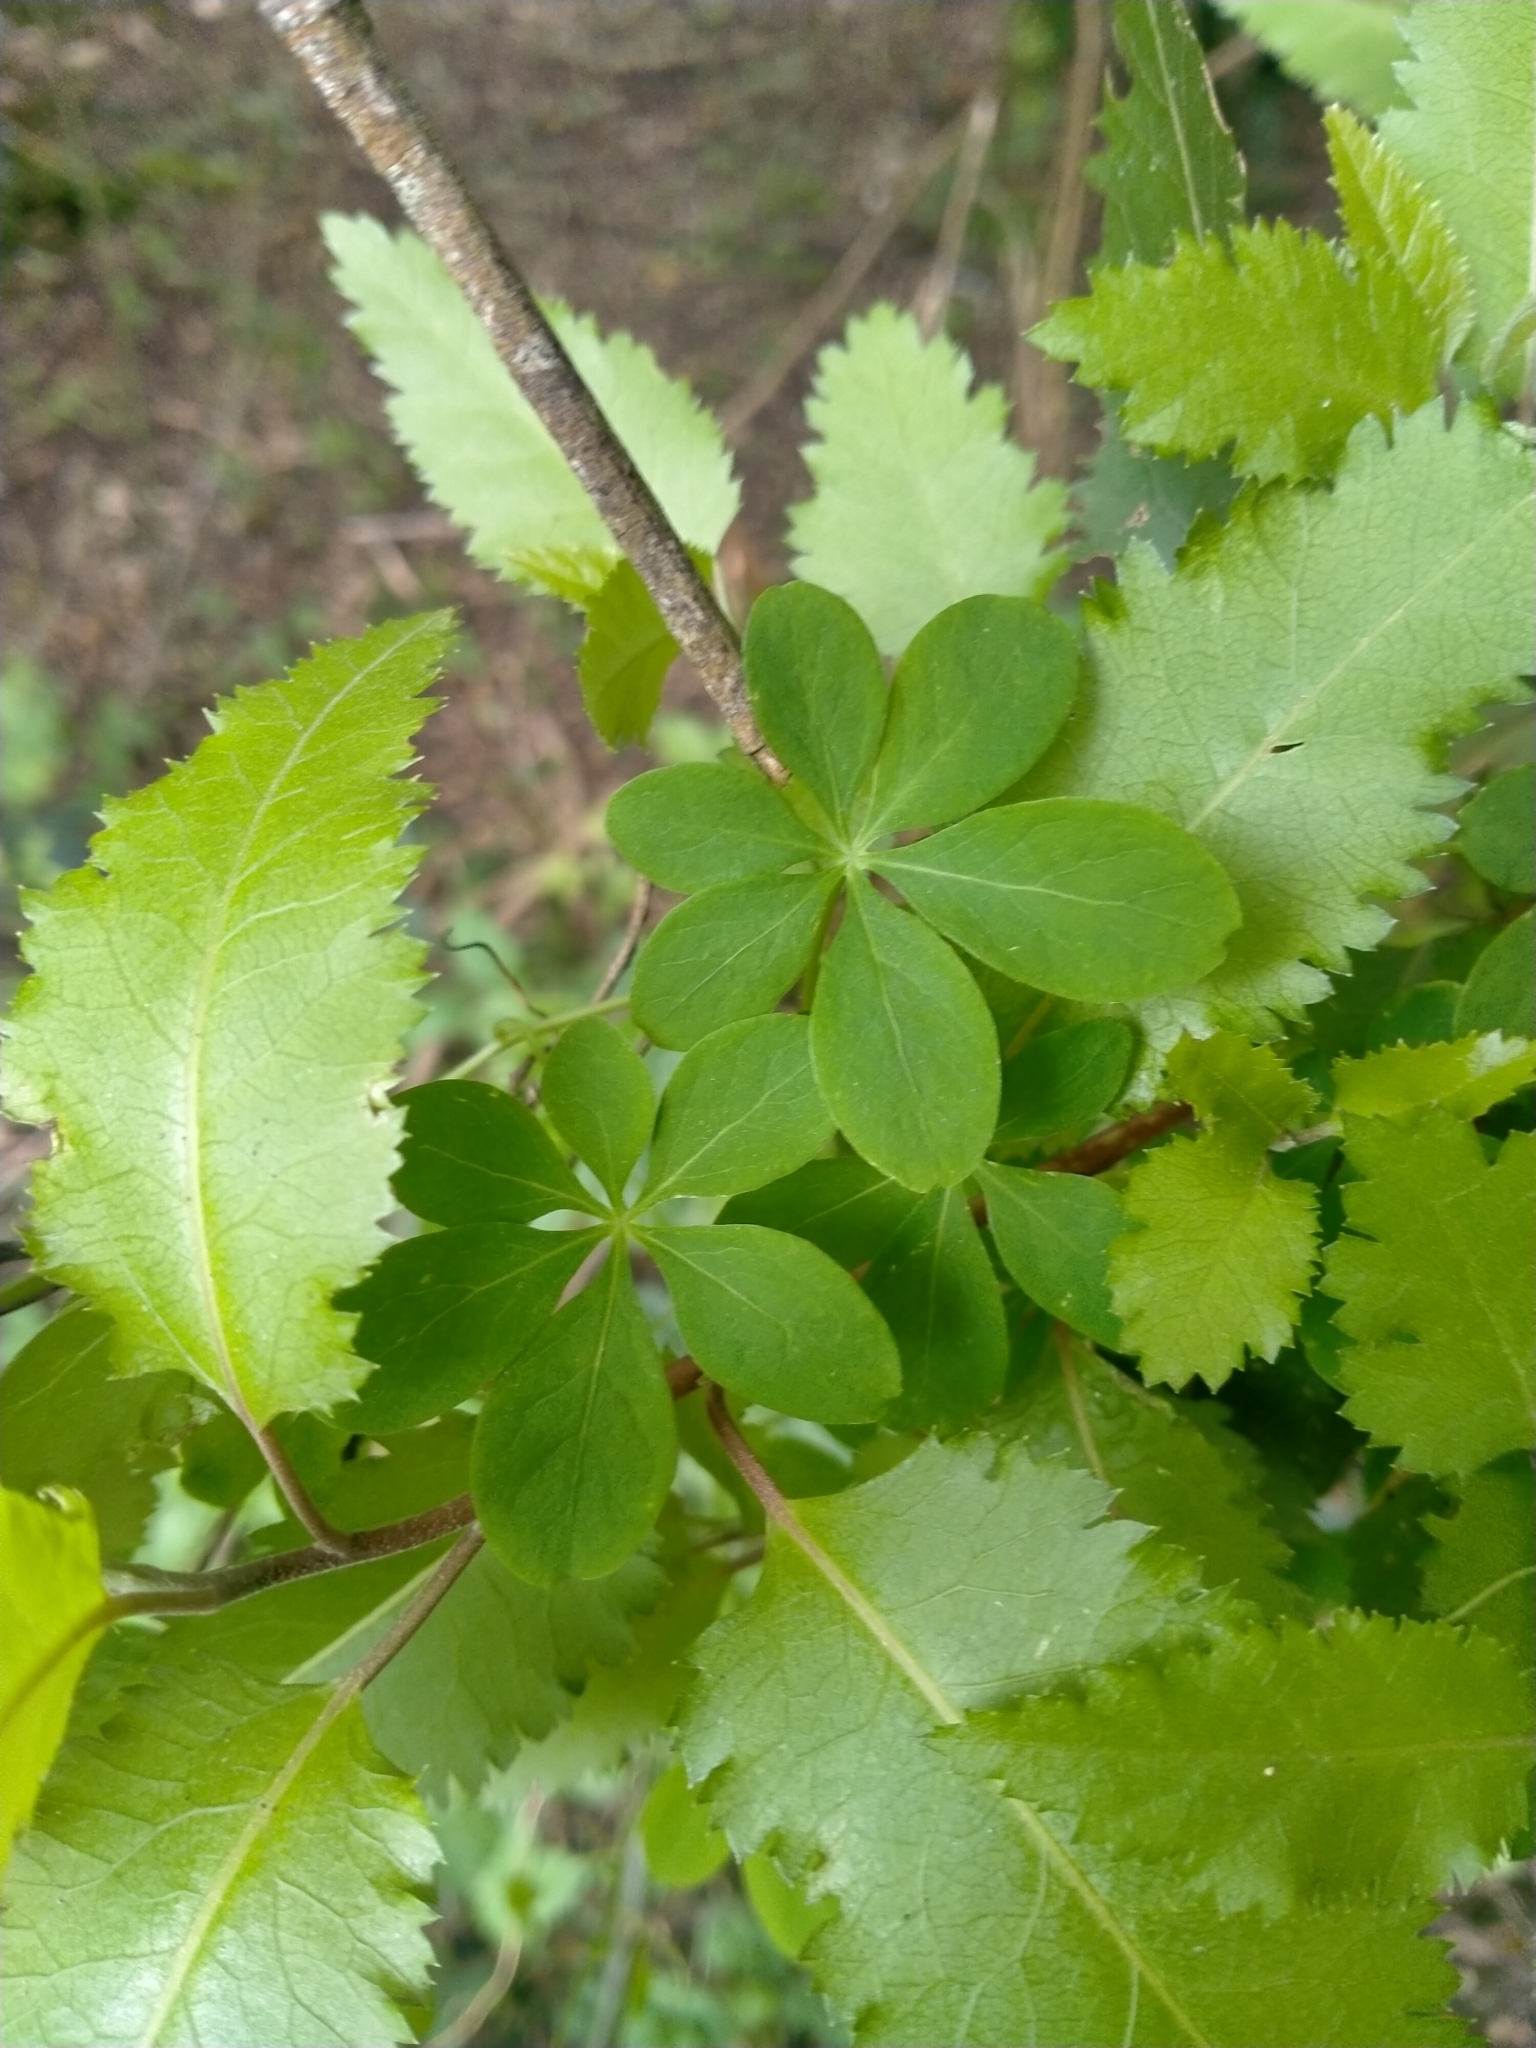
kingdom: Plantae
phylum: Tracheophyta
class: Magnoliopsida
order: Brassicales
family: Tropaeolaceae
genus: Tropaeolum
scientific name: Tropaeolum speciosum
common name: Flame nasturtium
